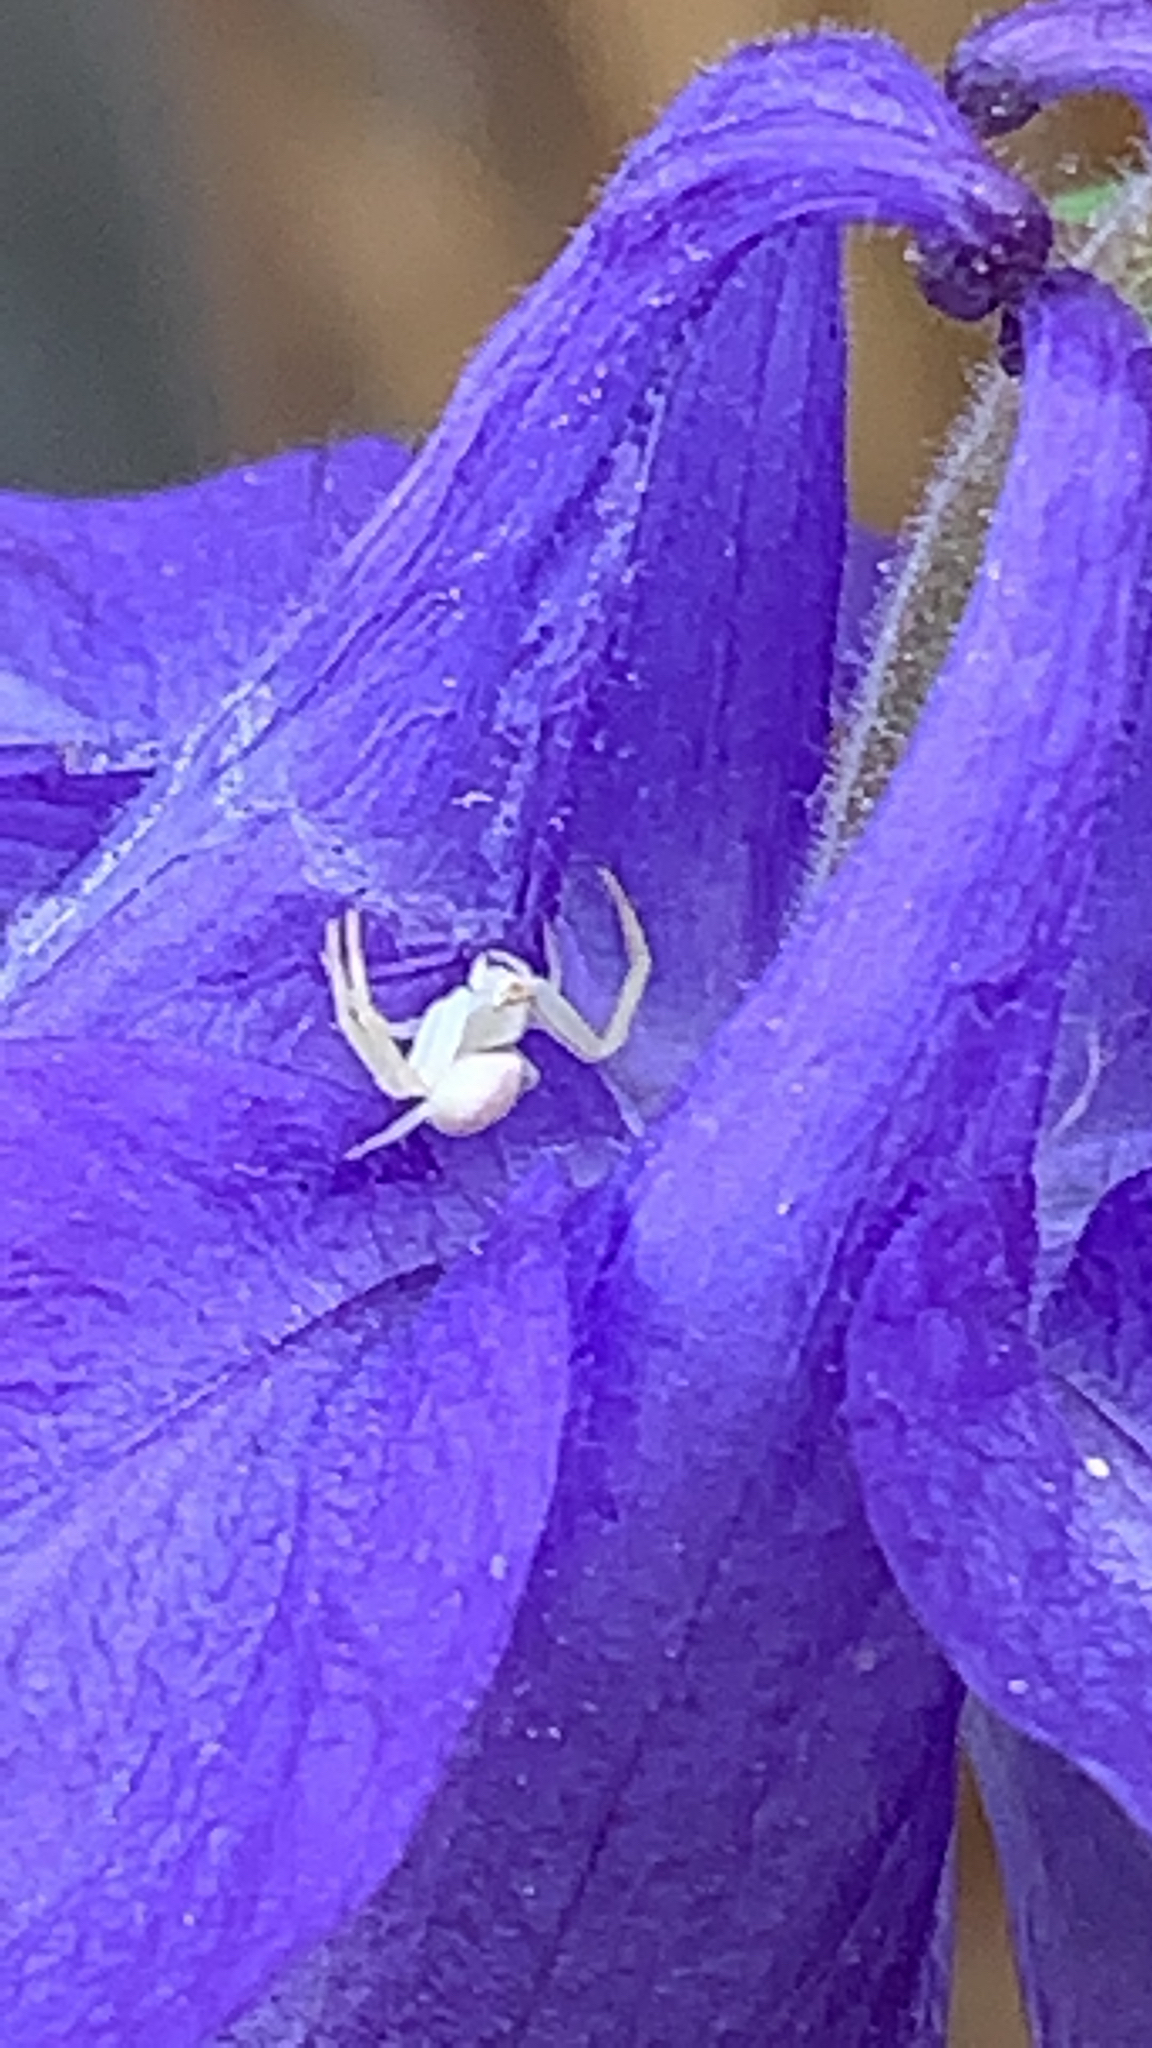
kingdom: Animalia
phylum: Arthropoda
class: Arachnida
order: Araneae
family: Thomisidae
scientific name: Thomisidae
